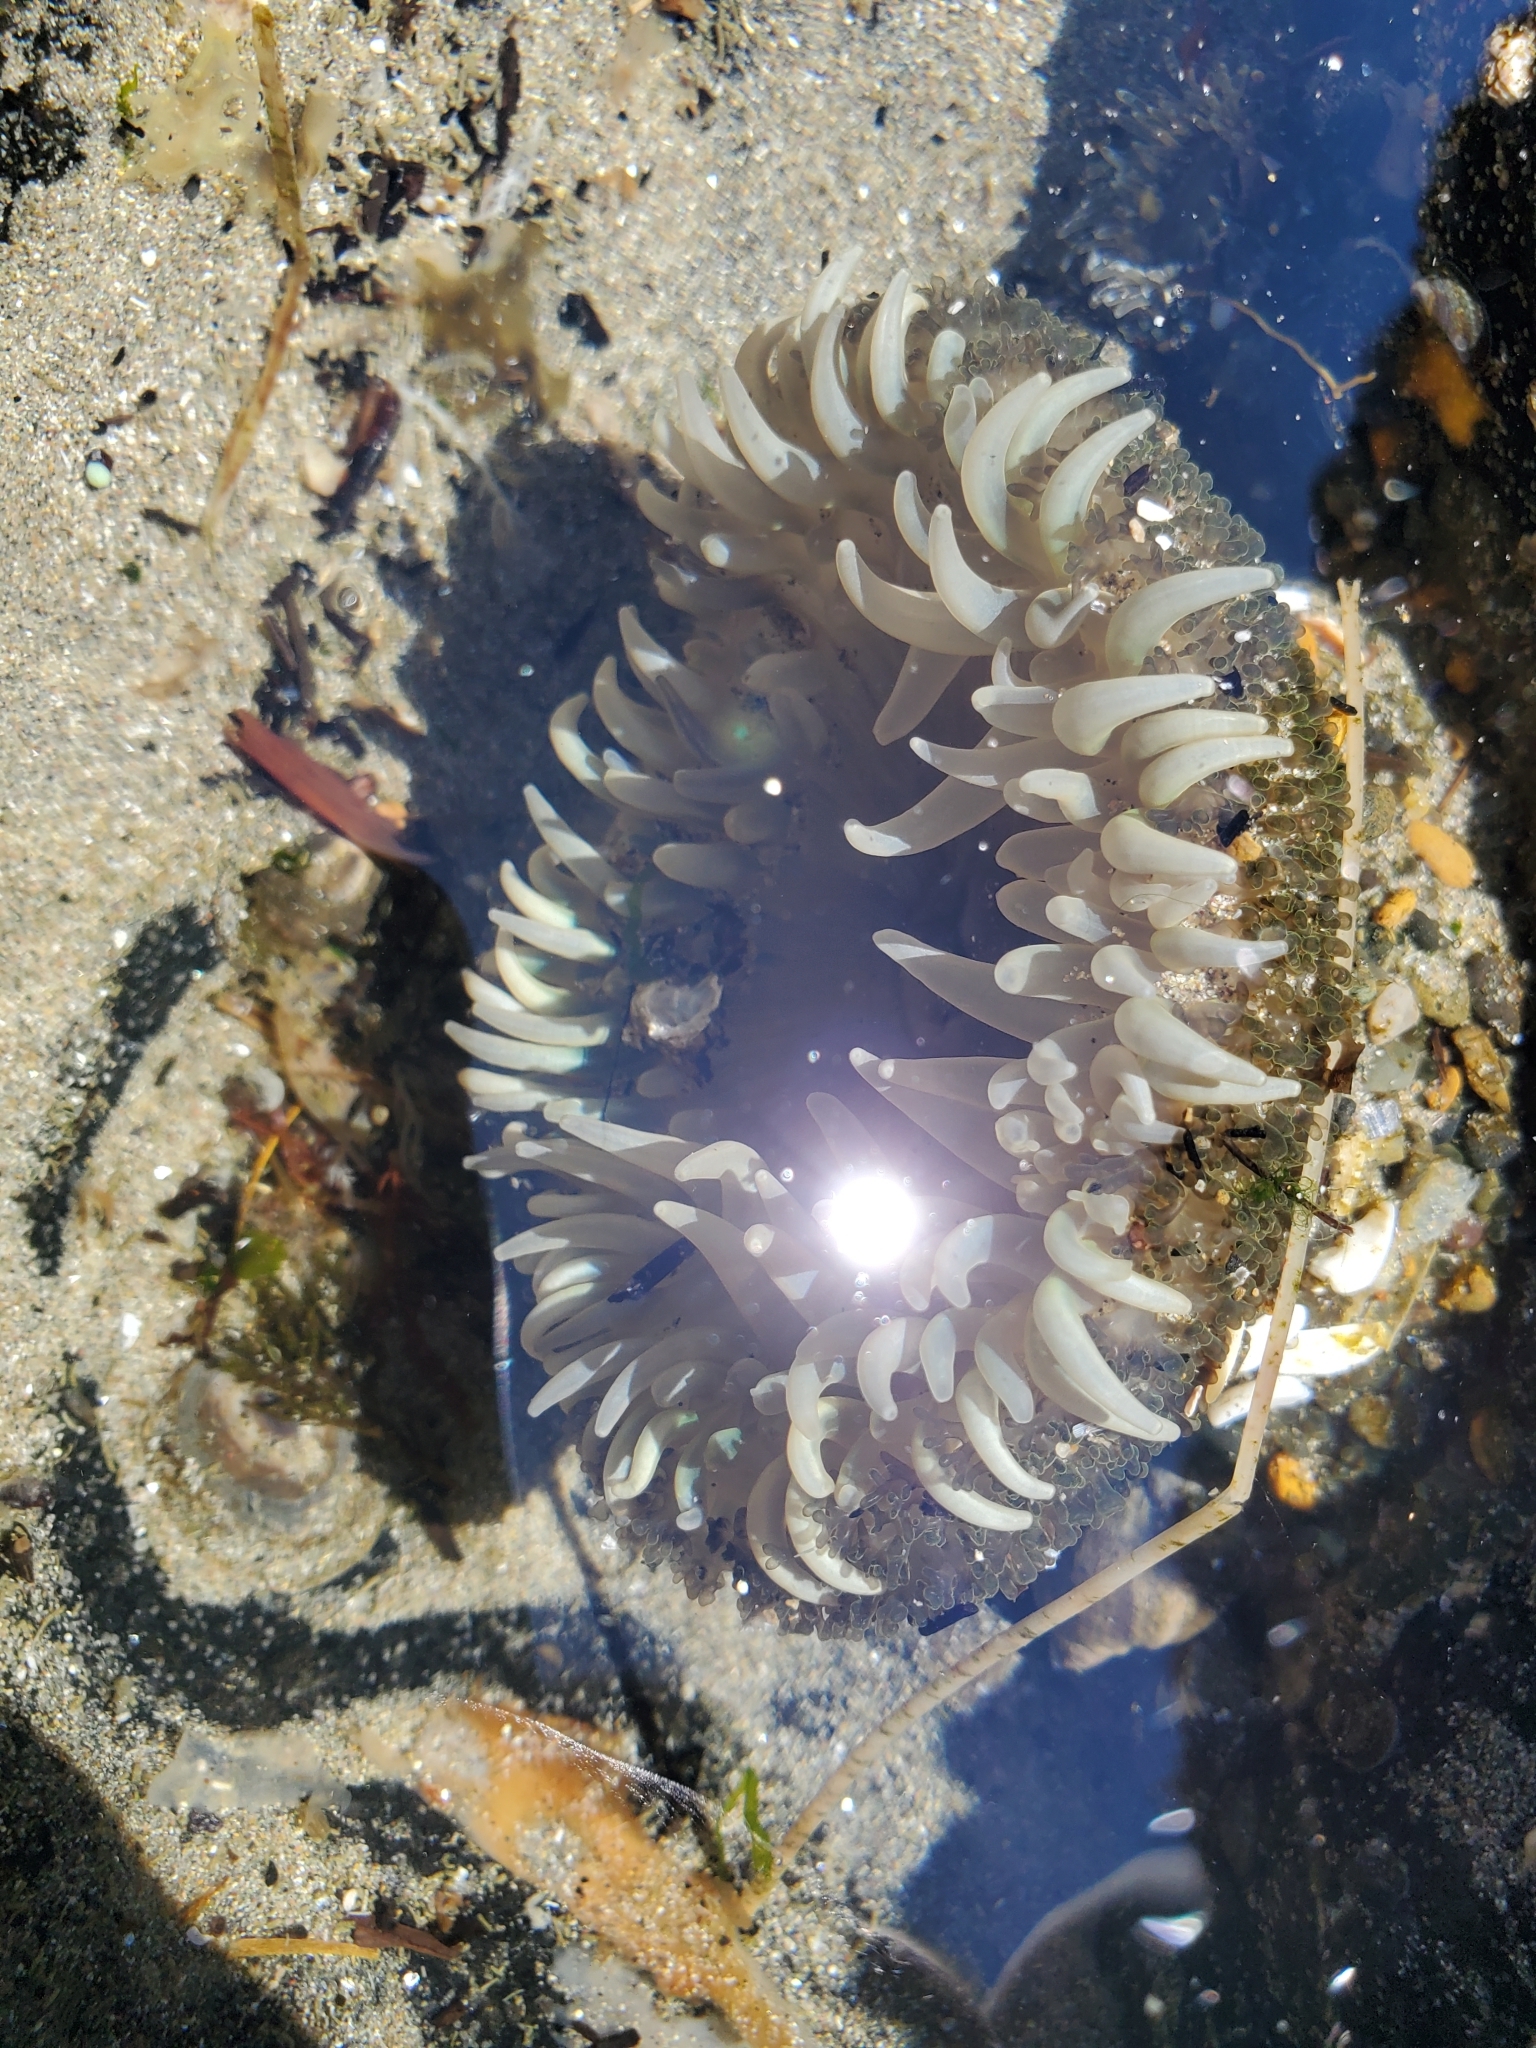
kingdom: Animalia
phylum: Cnidaria
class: Anthozoa
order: Actiniaria
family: Actiniidae
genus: Anthopleura
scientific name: Anthopleura xanthogrammica
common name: Giant green anemone
